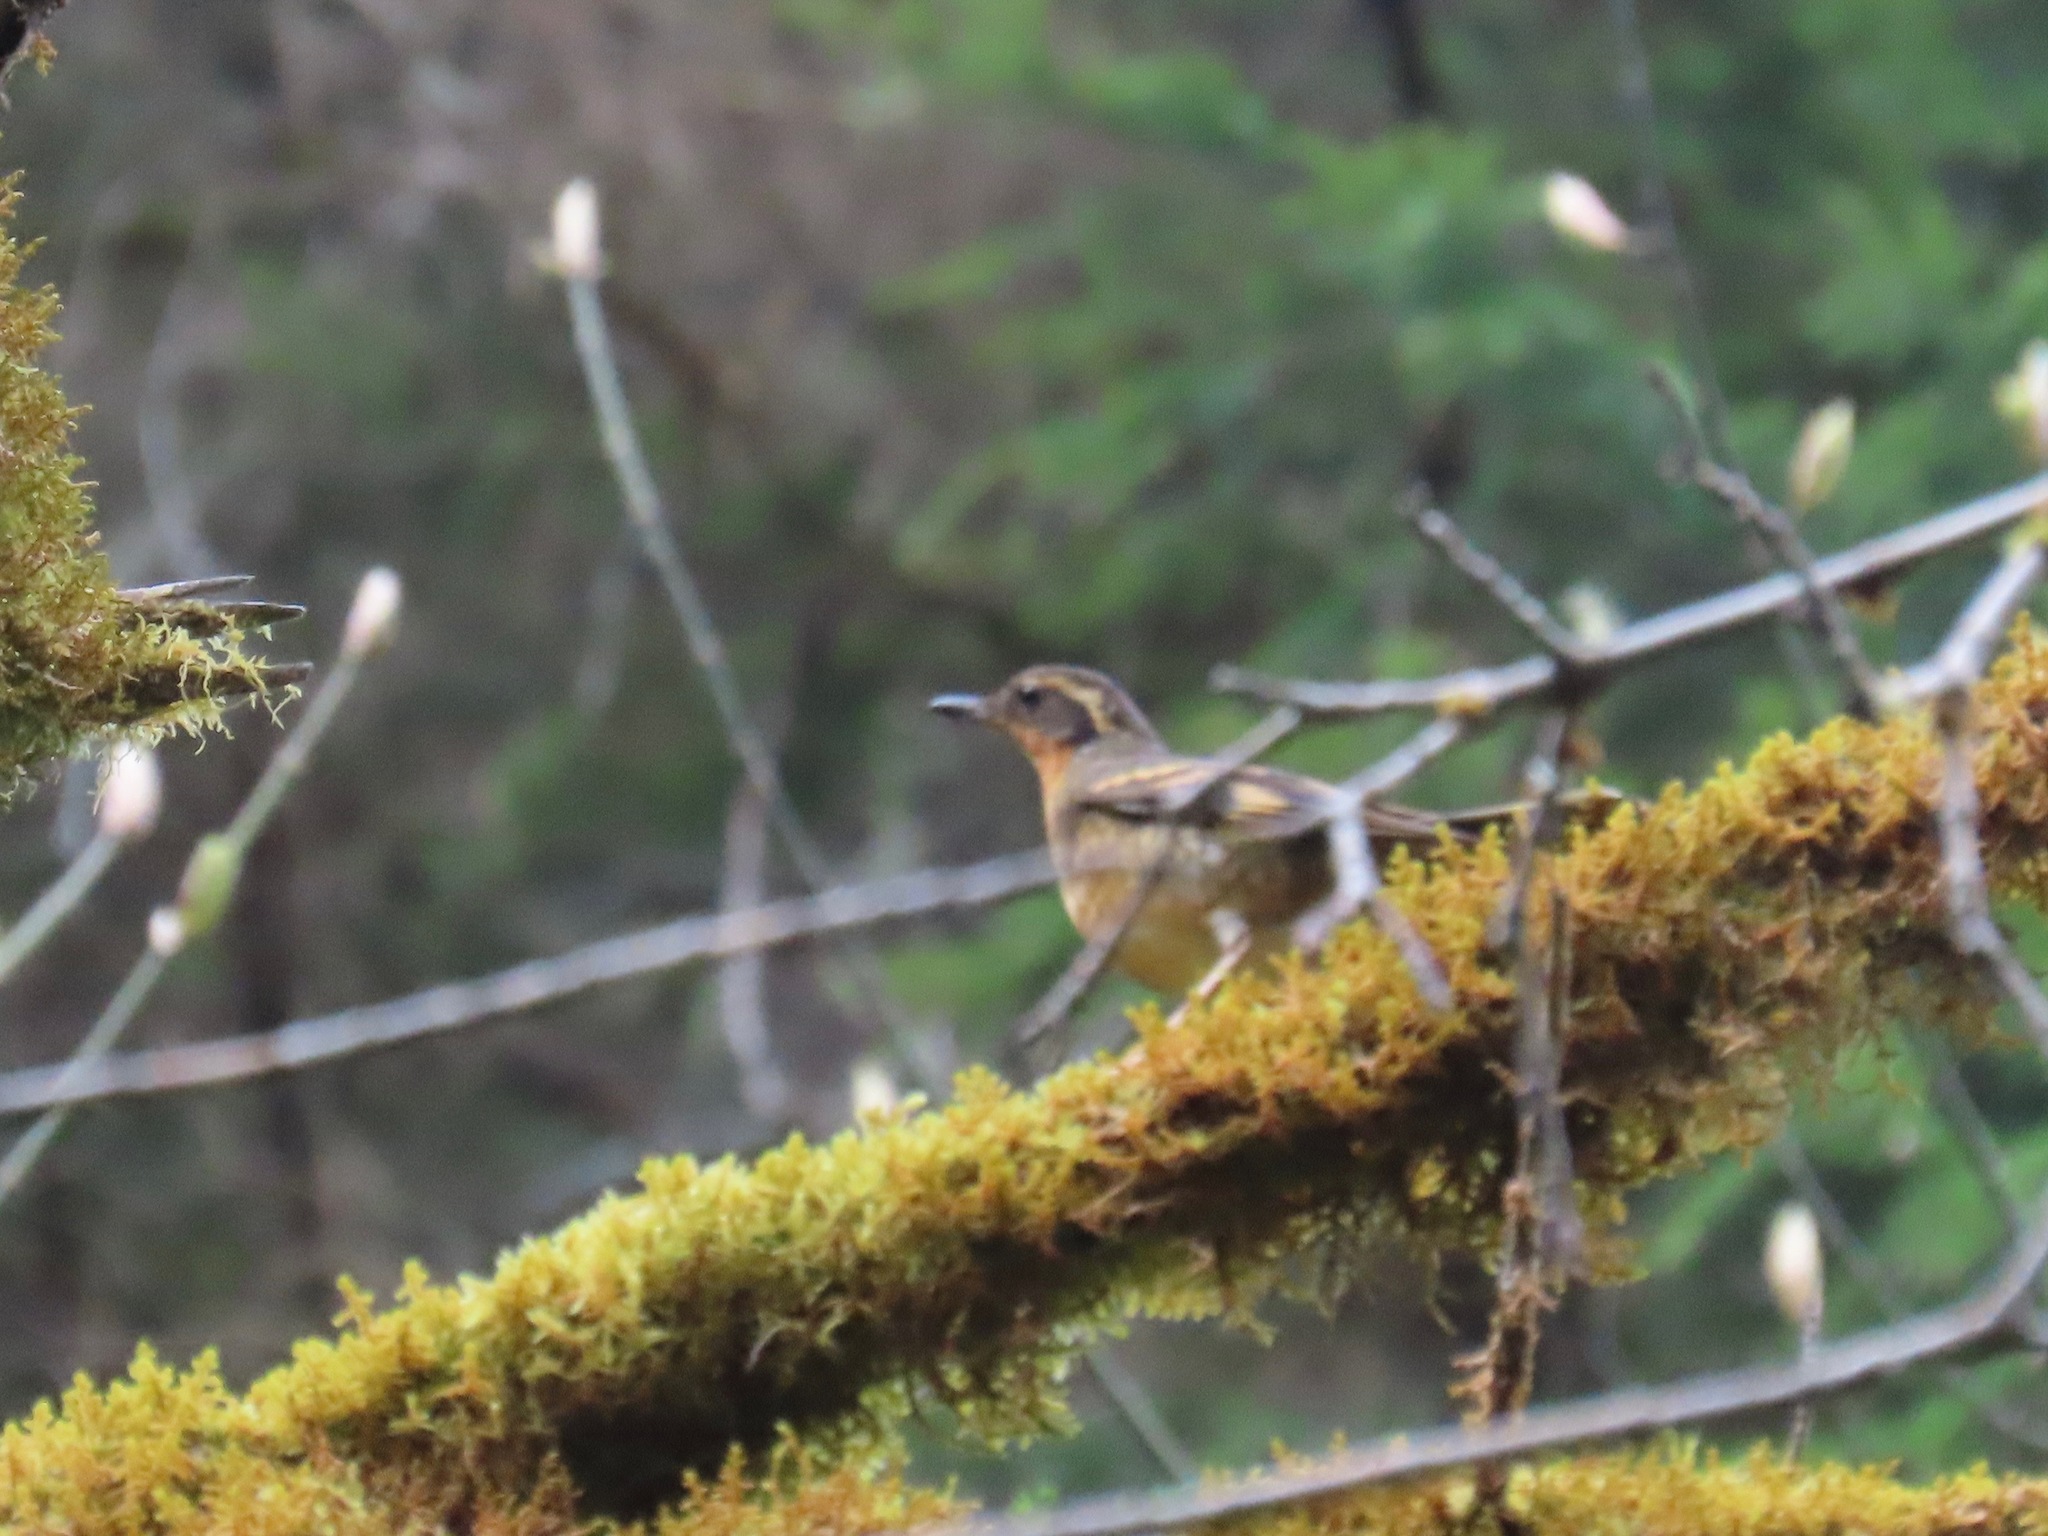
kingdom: Animalia
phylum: Chordata
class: Aves
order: Passeriformes
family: Turdidae
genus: Ixoreus
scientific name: Ixoreus naevius
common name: Varied thrush
